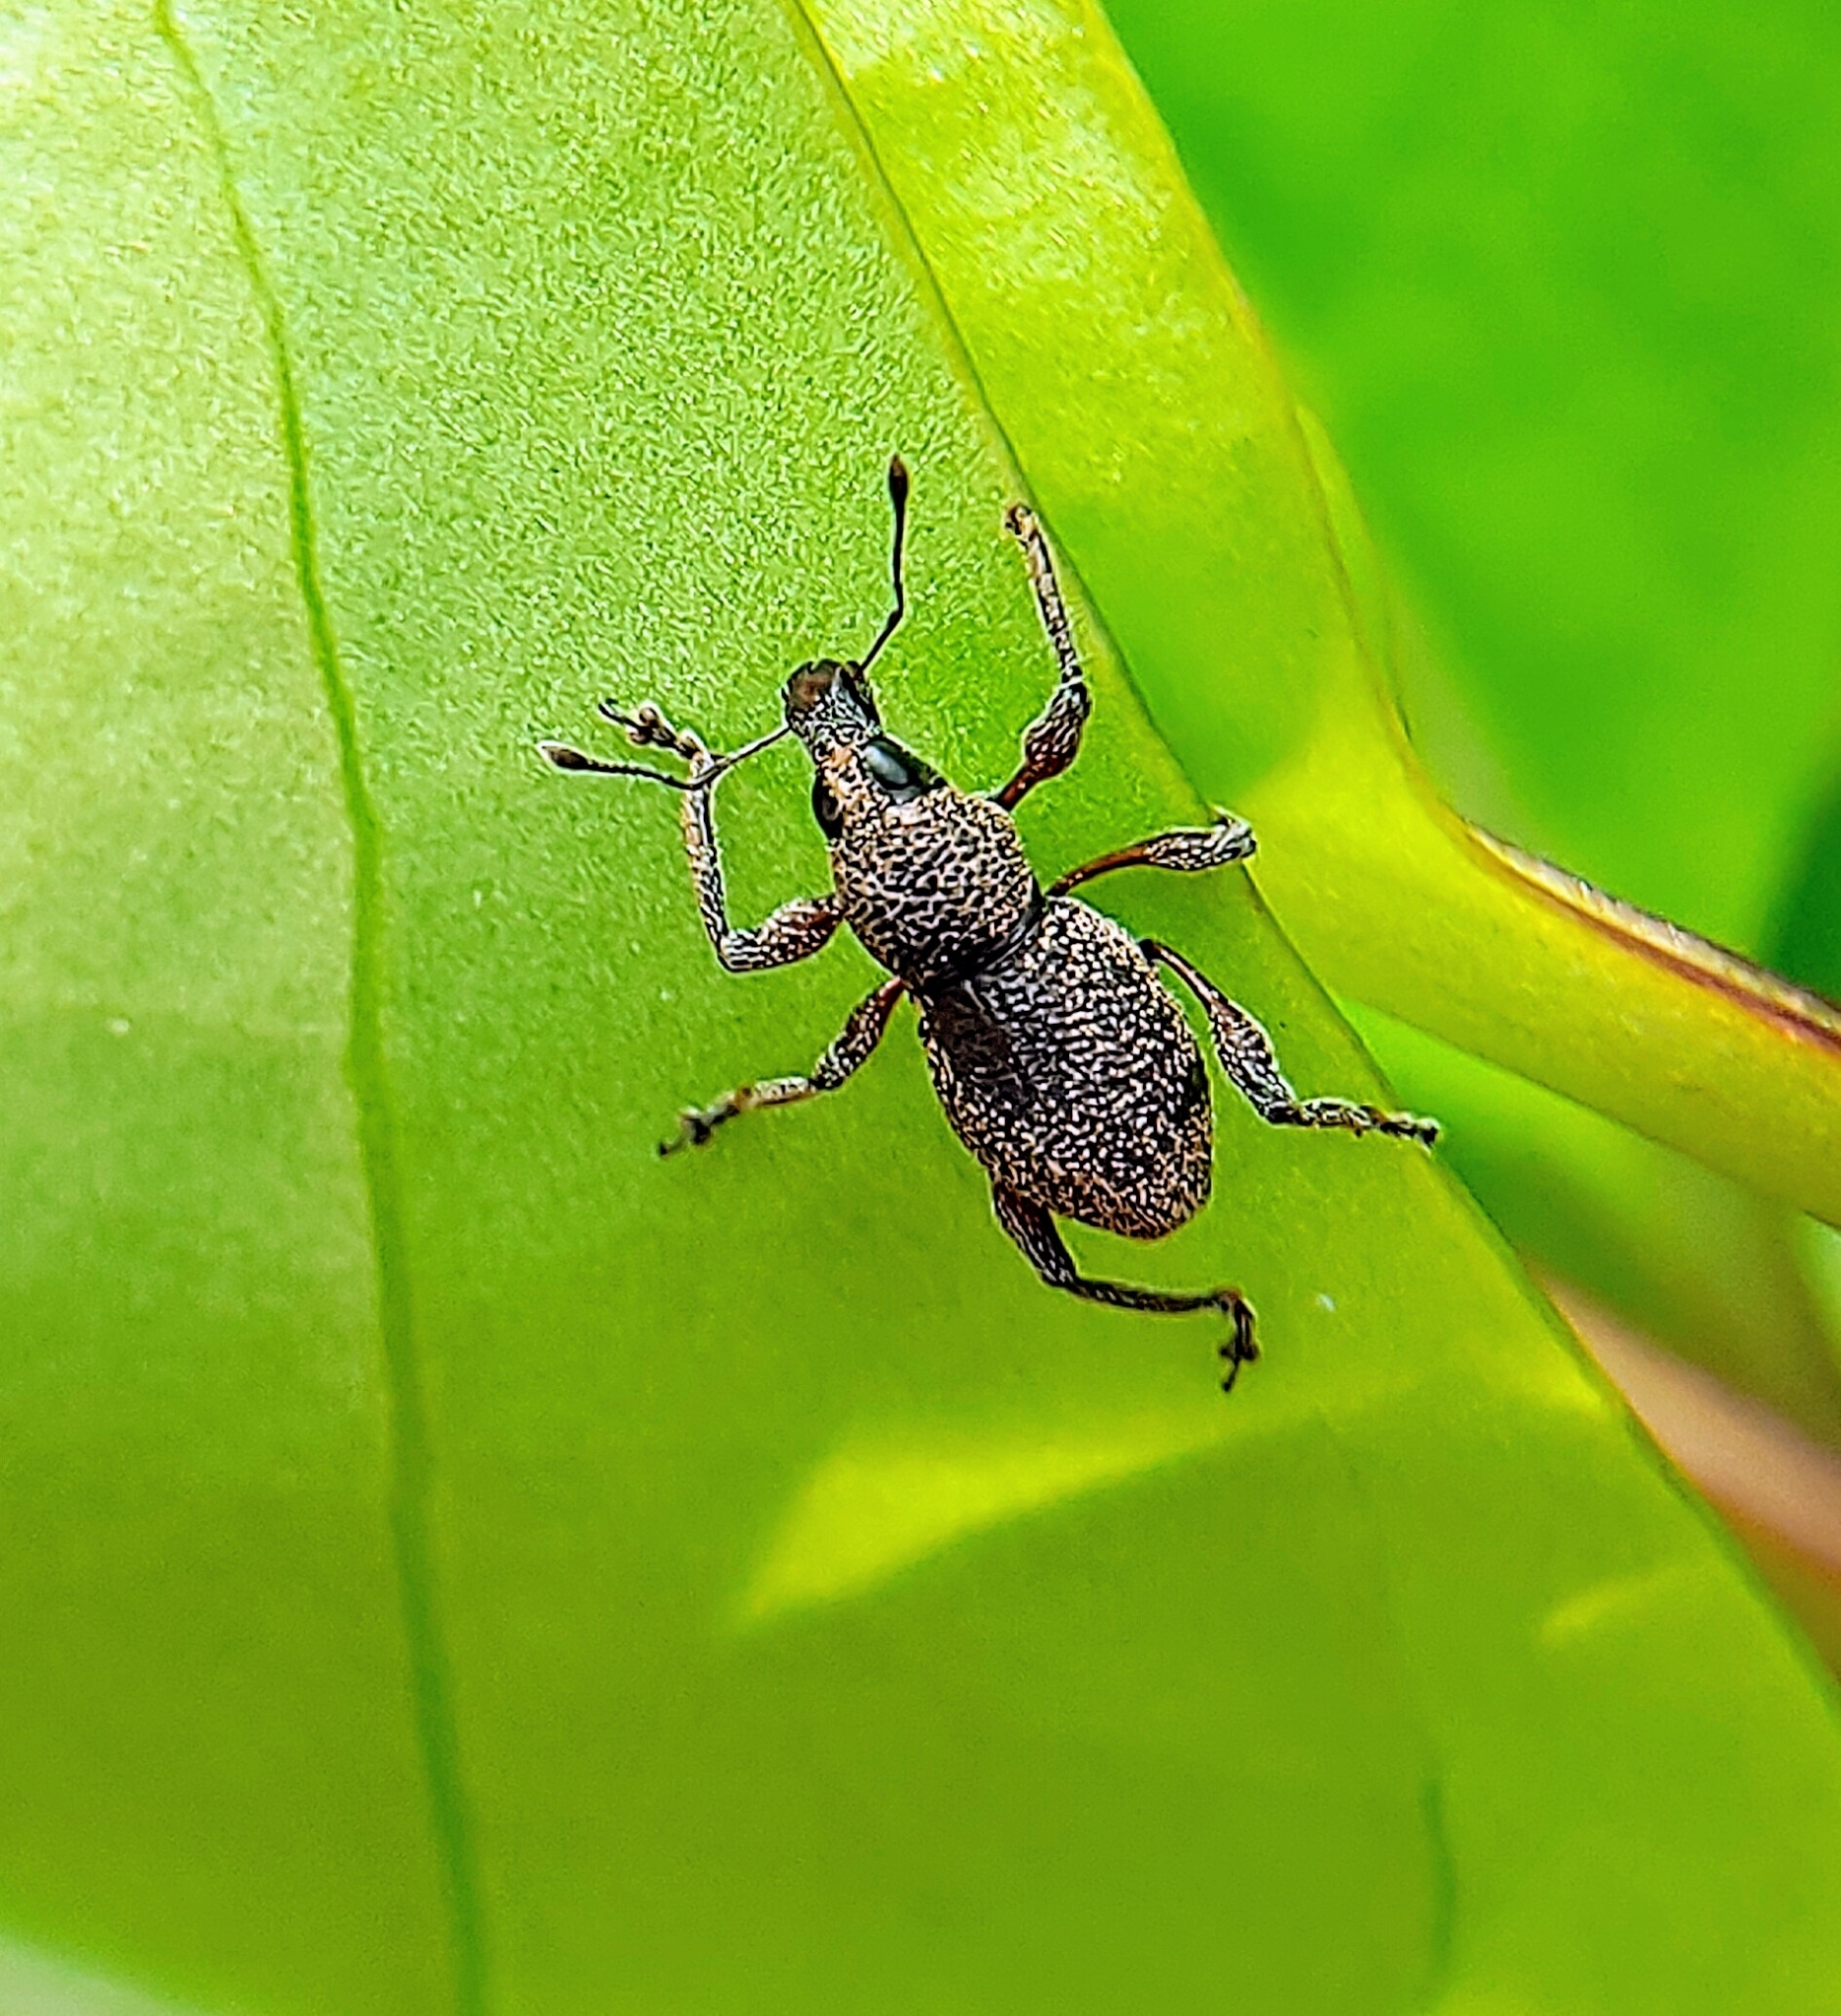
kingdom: Animalia
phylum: Arthropoda
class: Insecta
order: Coleoptera
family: Curculionidae
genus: Metapocyrtus
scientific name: Metapocyrtus adspersus
